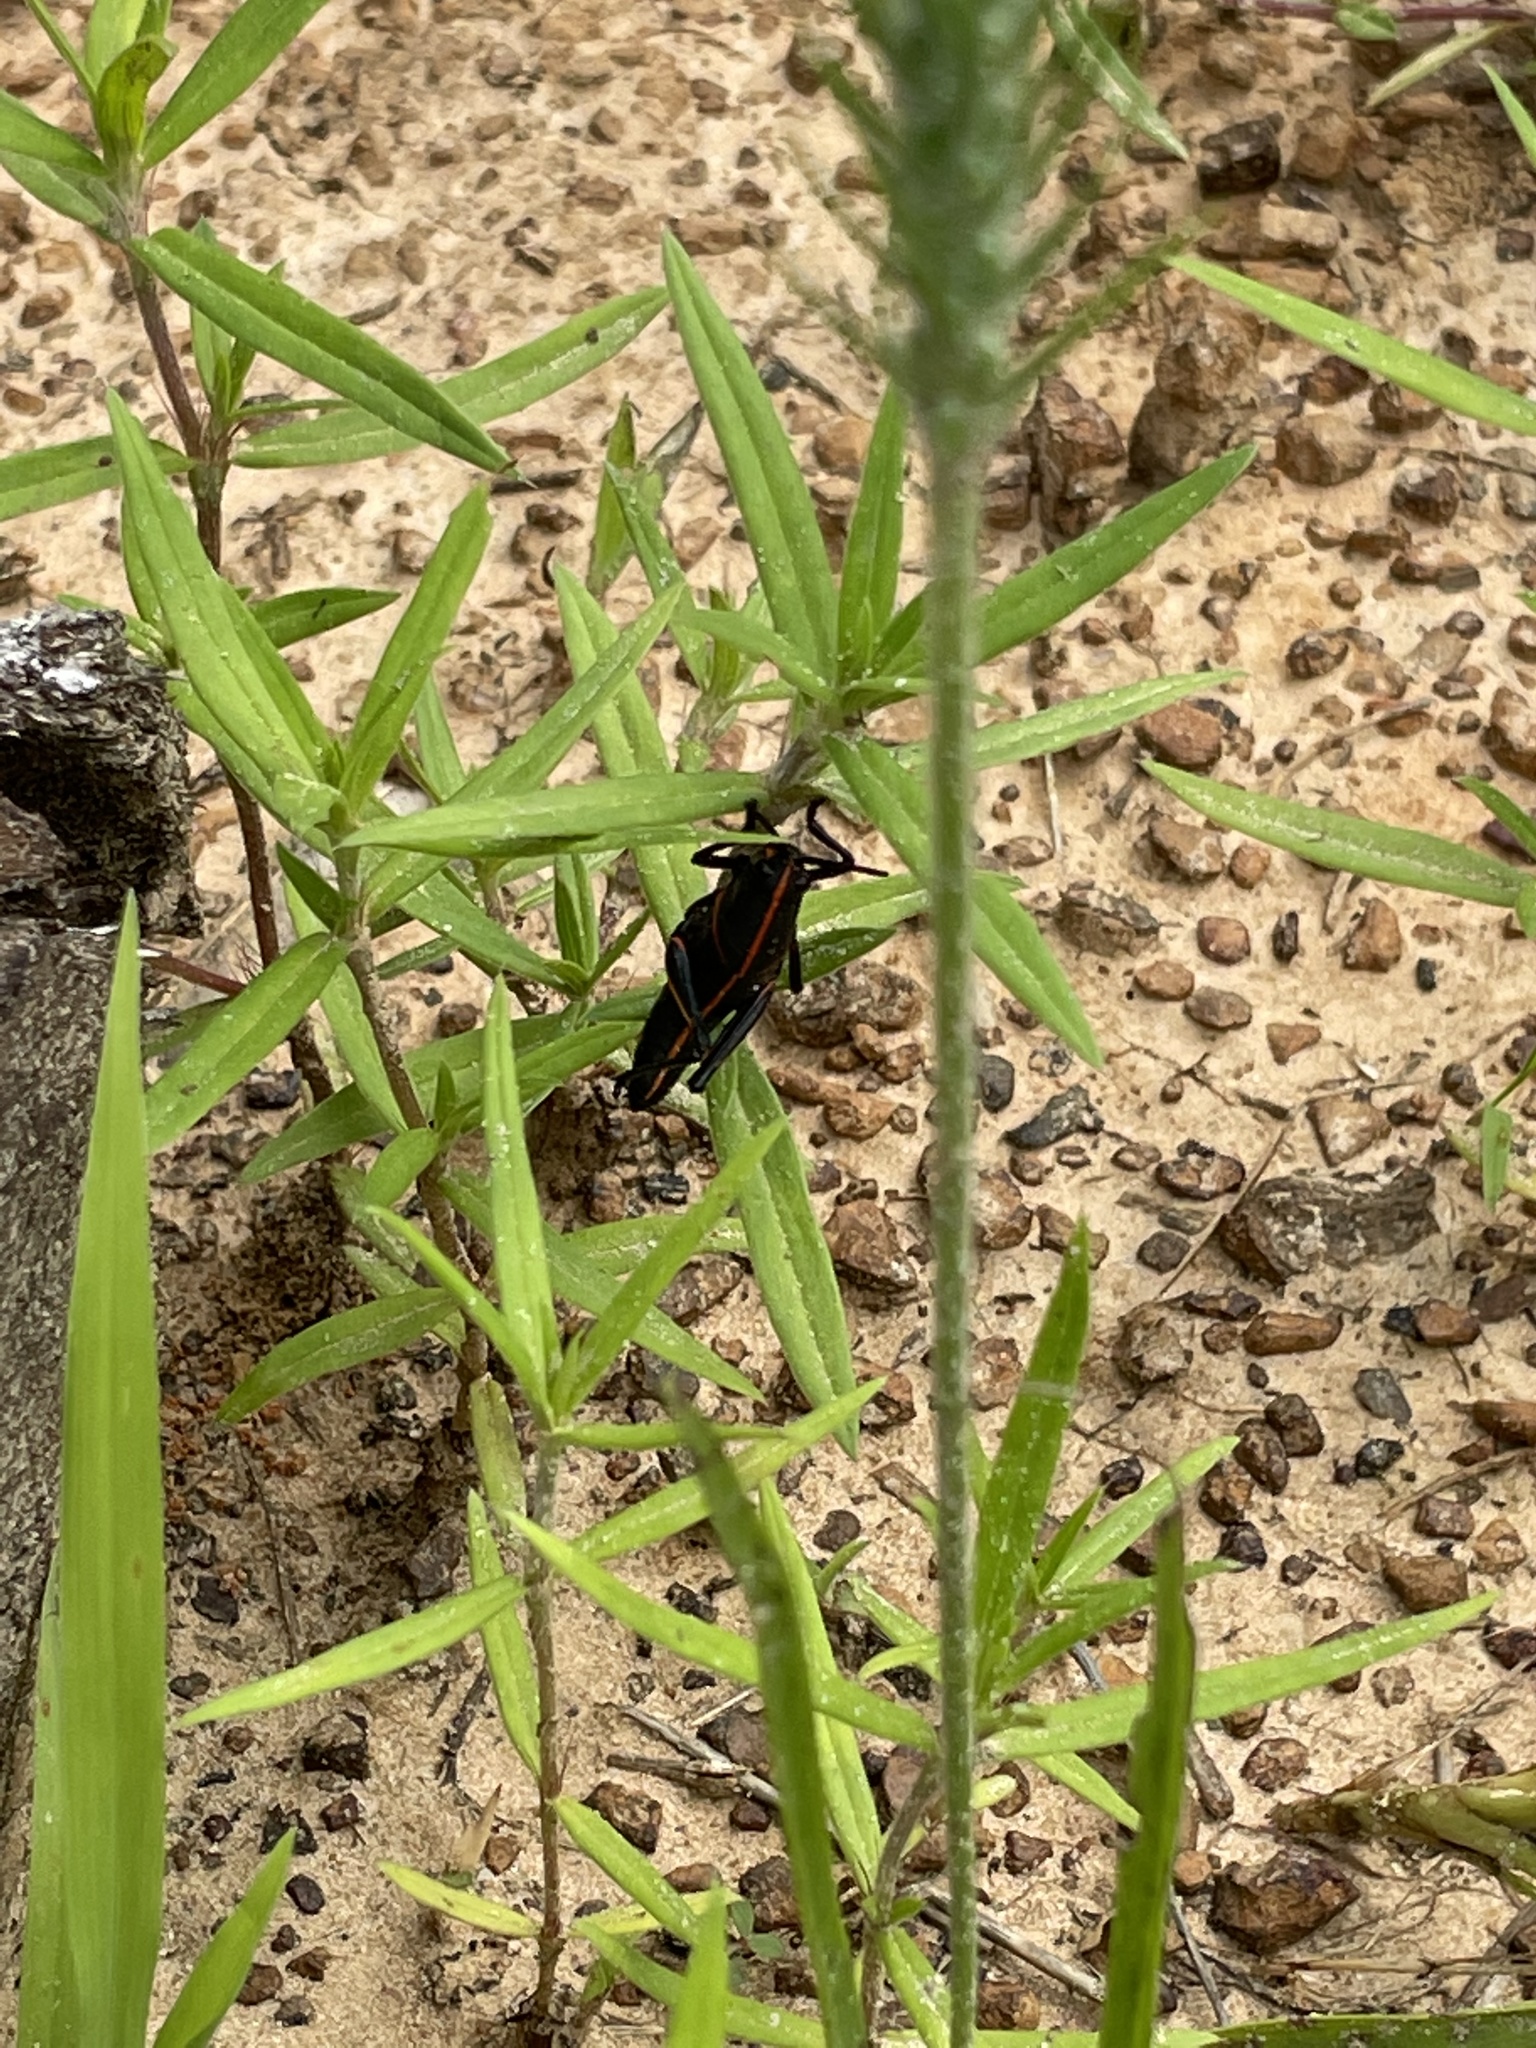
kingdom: Animalia
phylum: Arthropoda
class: Insecta
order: Orthoptera
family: Romaleidae
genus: Romalea
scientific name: Romalea microptera
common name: Eastern lubber grasshopper
